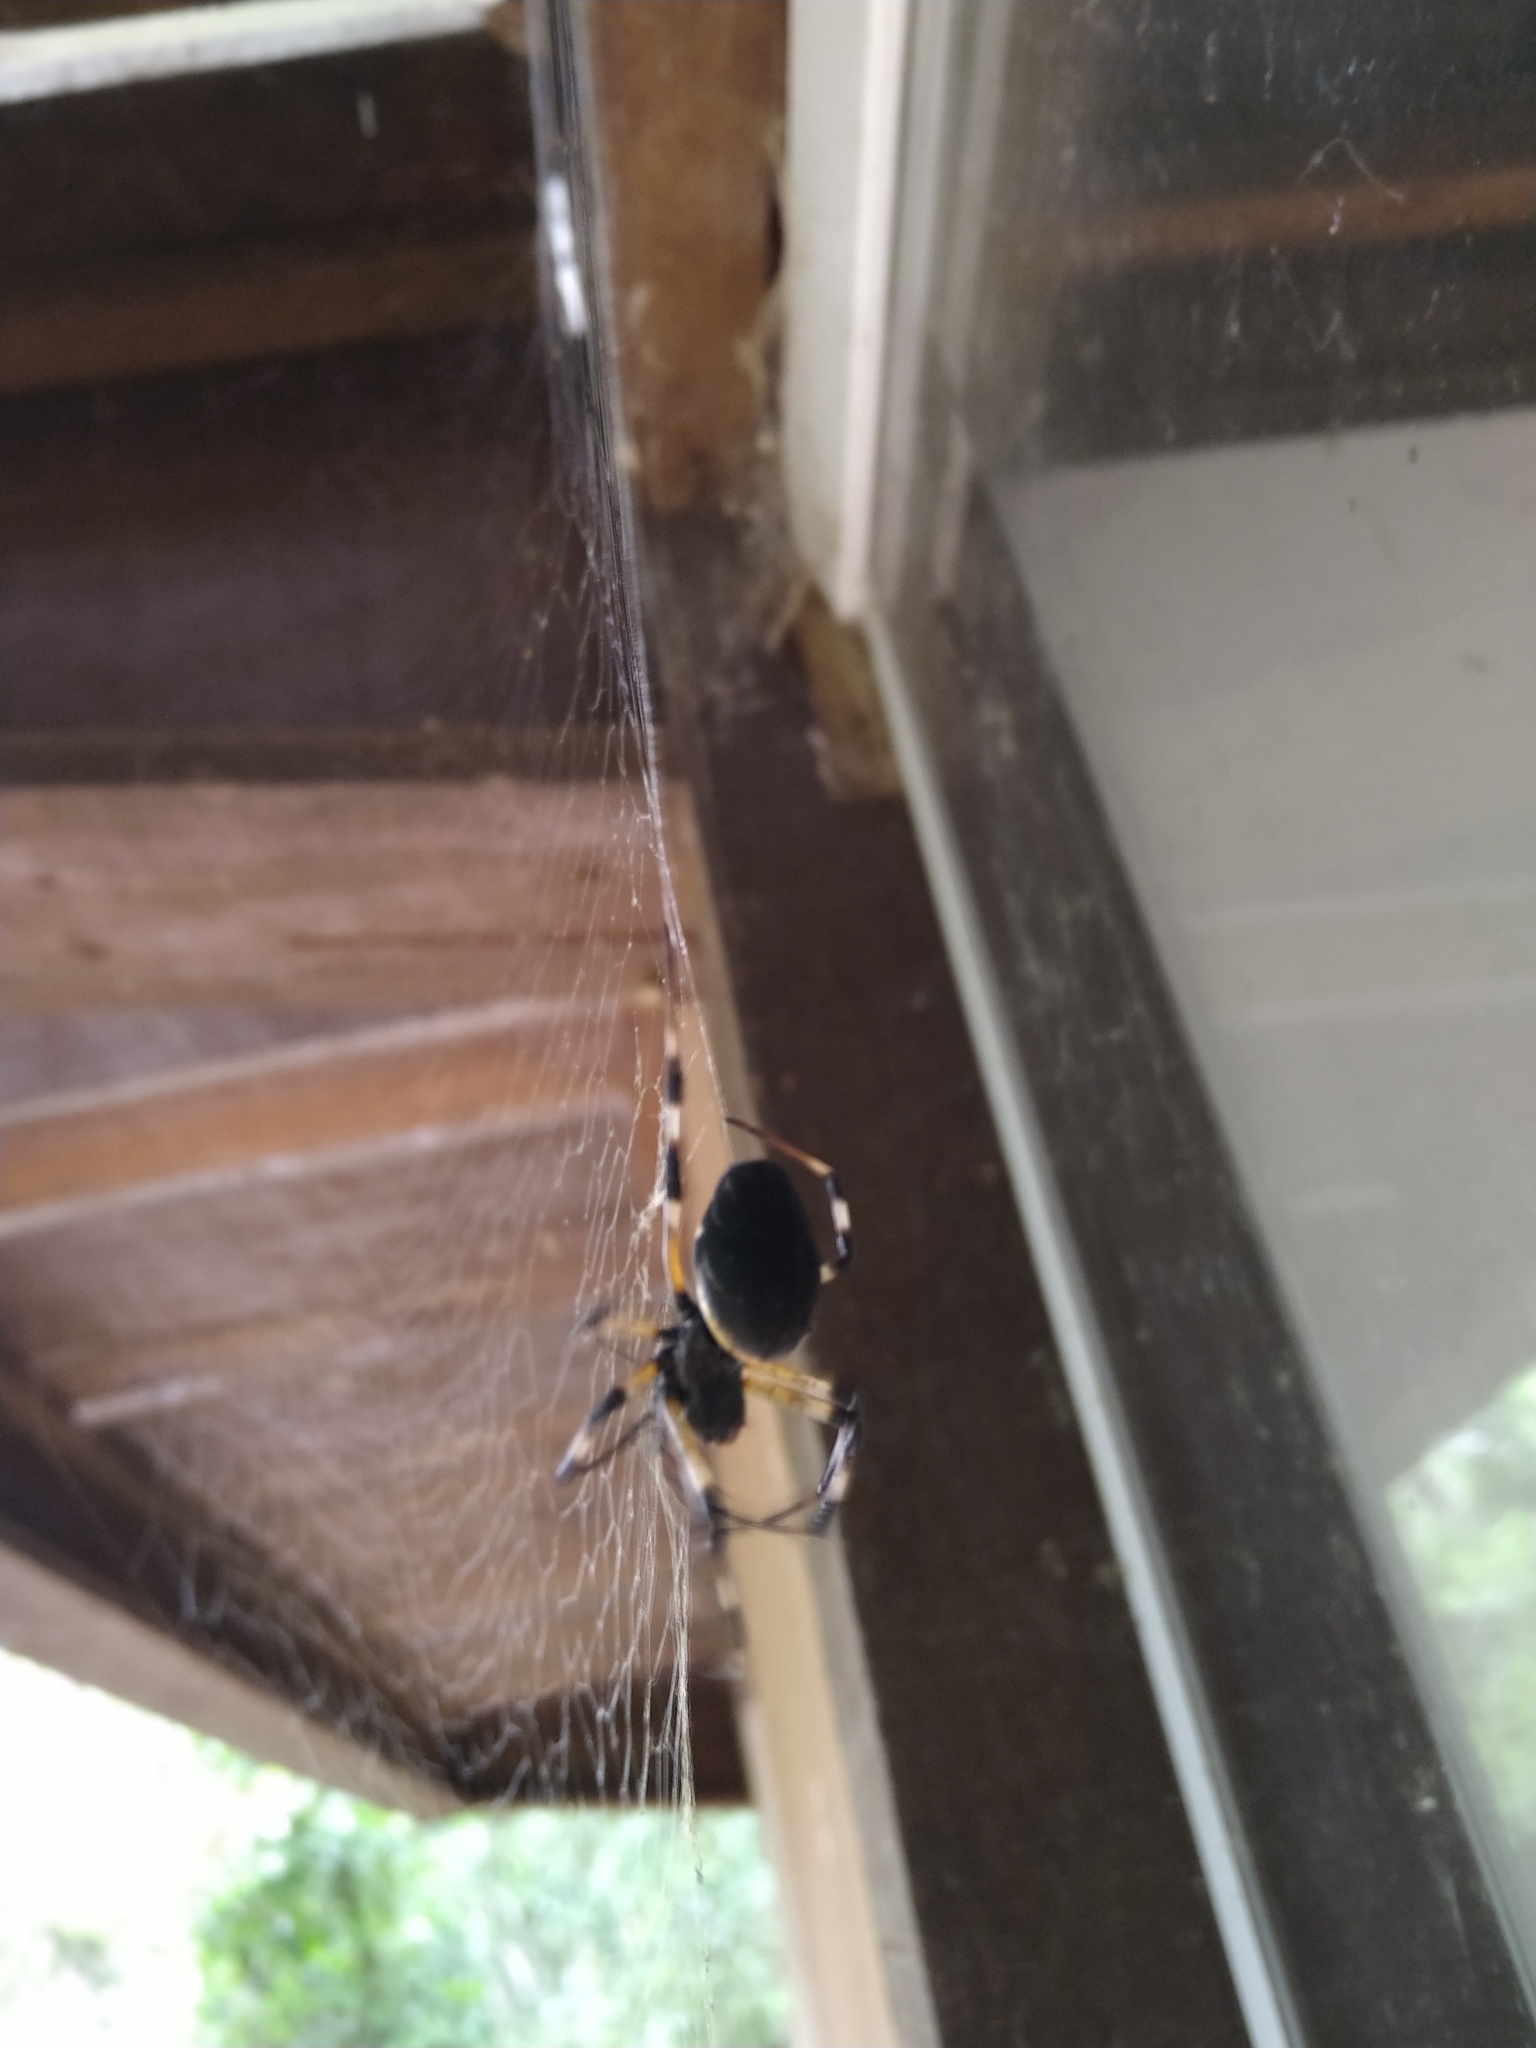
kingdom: Animalia
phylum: Arthropoda
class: Arachnida
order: Araneae
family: Araneidae
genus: Nephilingis
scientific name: Nephilingis cruentata
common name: African hermit spider
